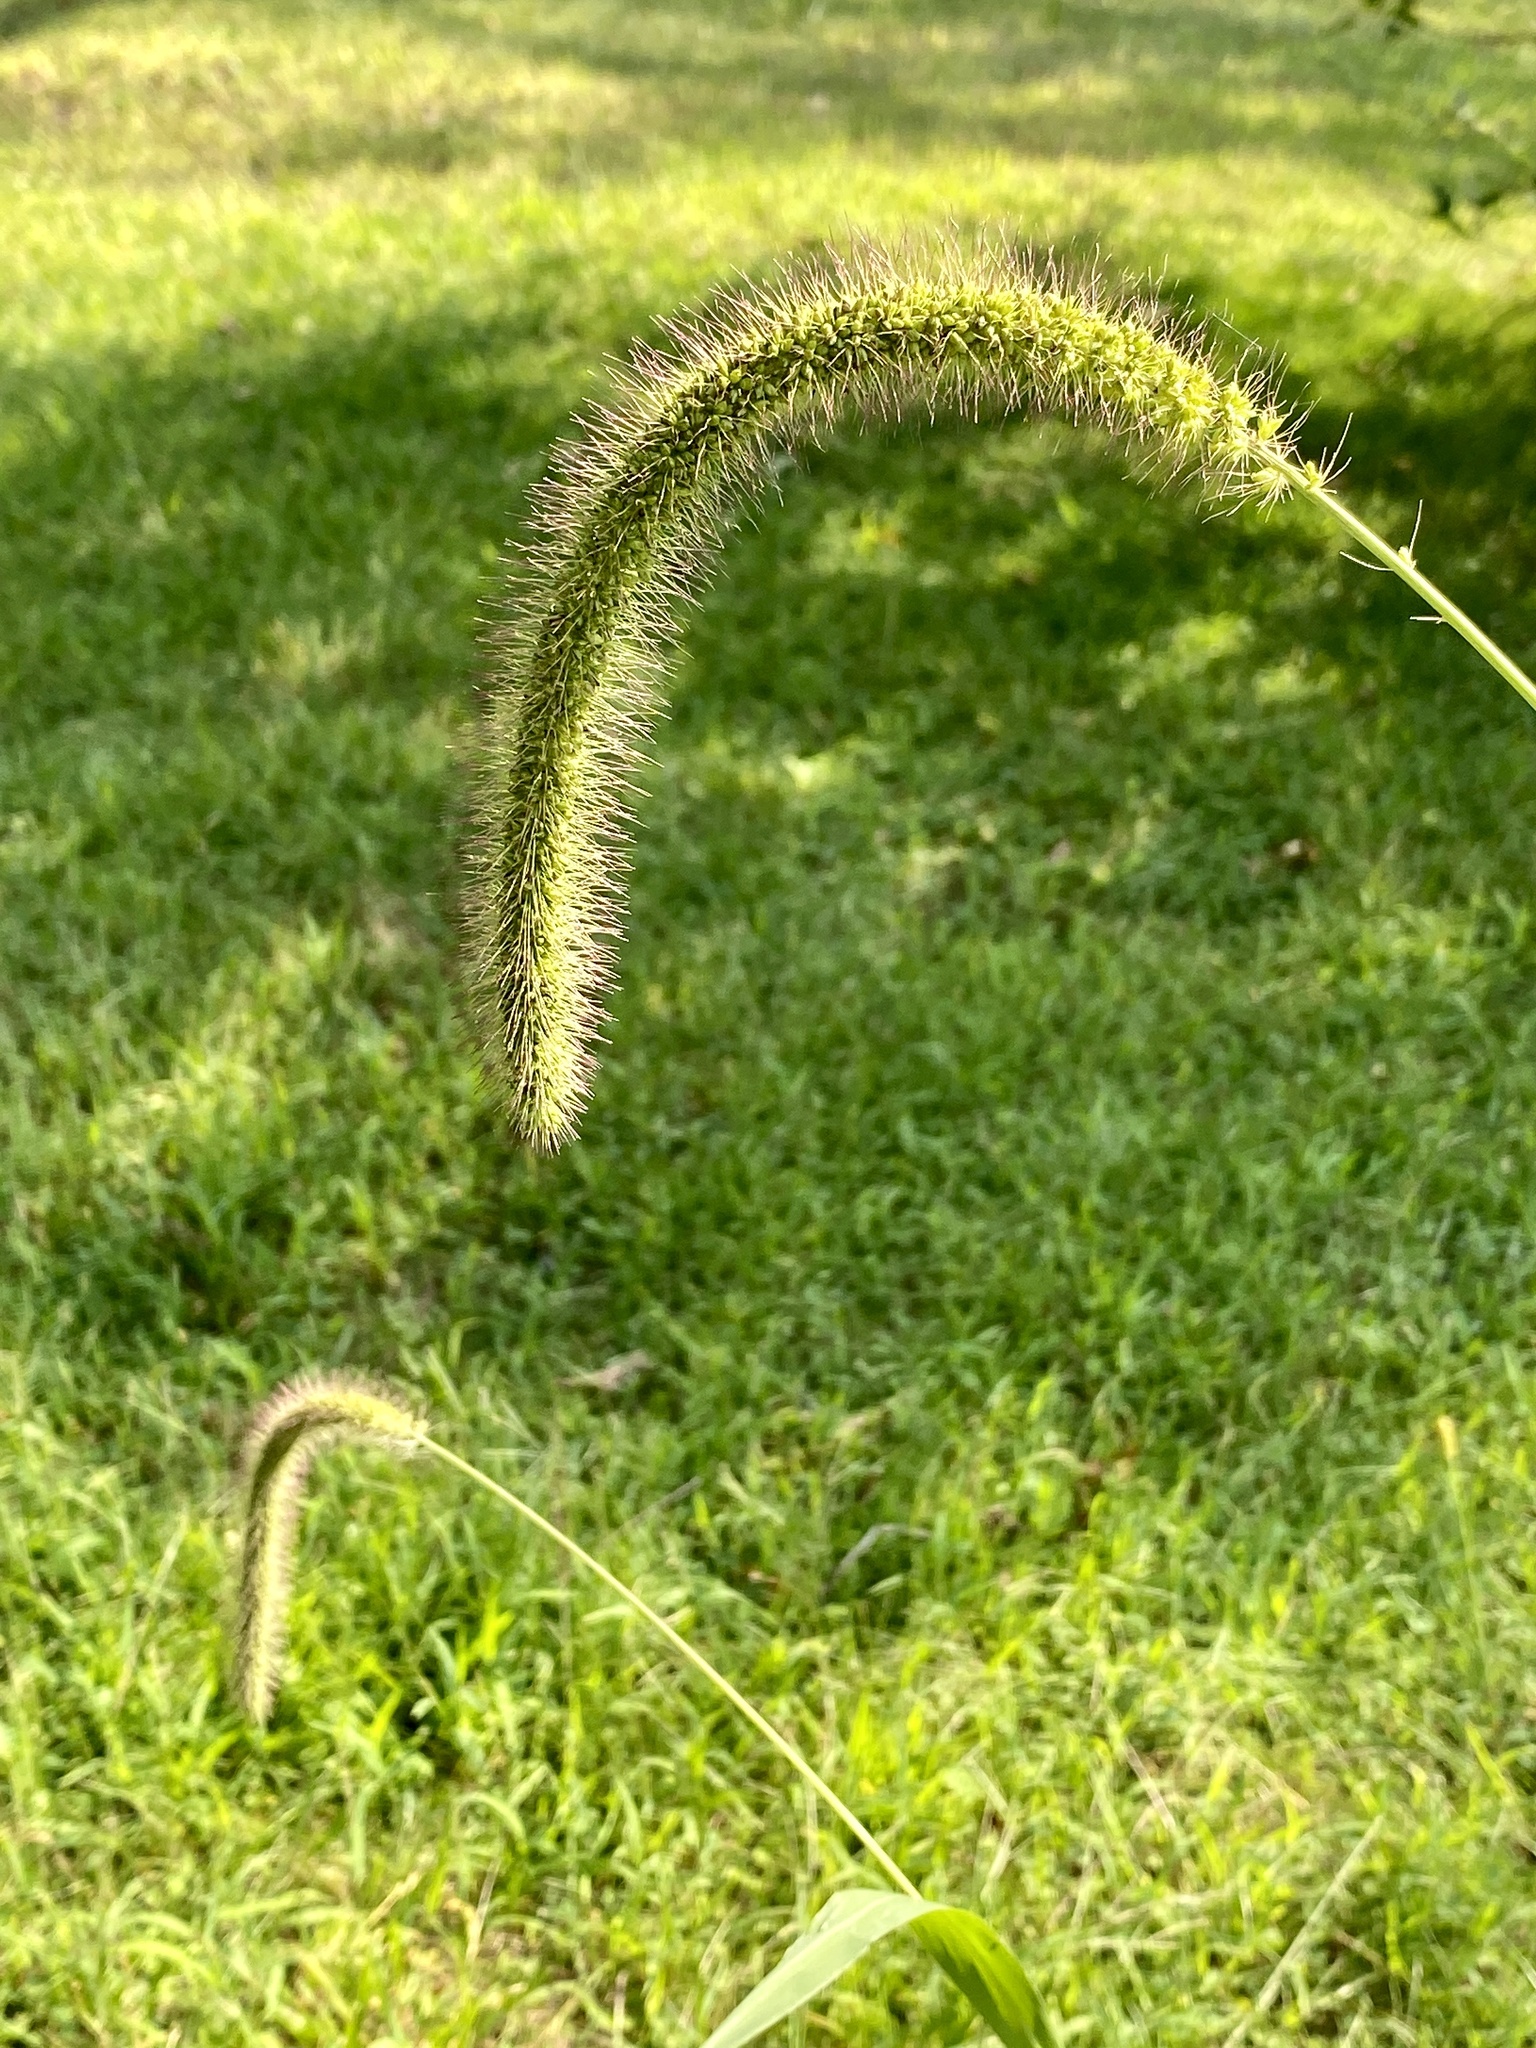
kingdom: Plantae
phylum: Tracheophyta
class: Liliopsida
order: Poales
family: Poaceae
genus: Setaria
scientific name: Setaria faberi
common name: Nodding bristle-grass
